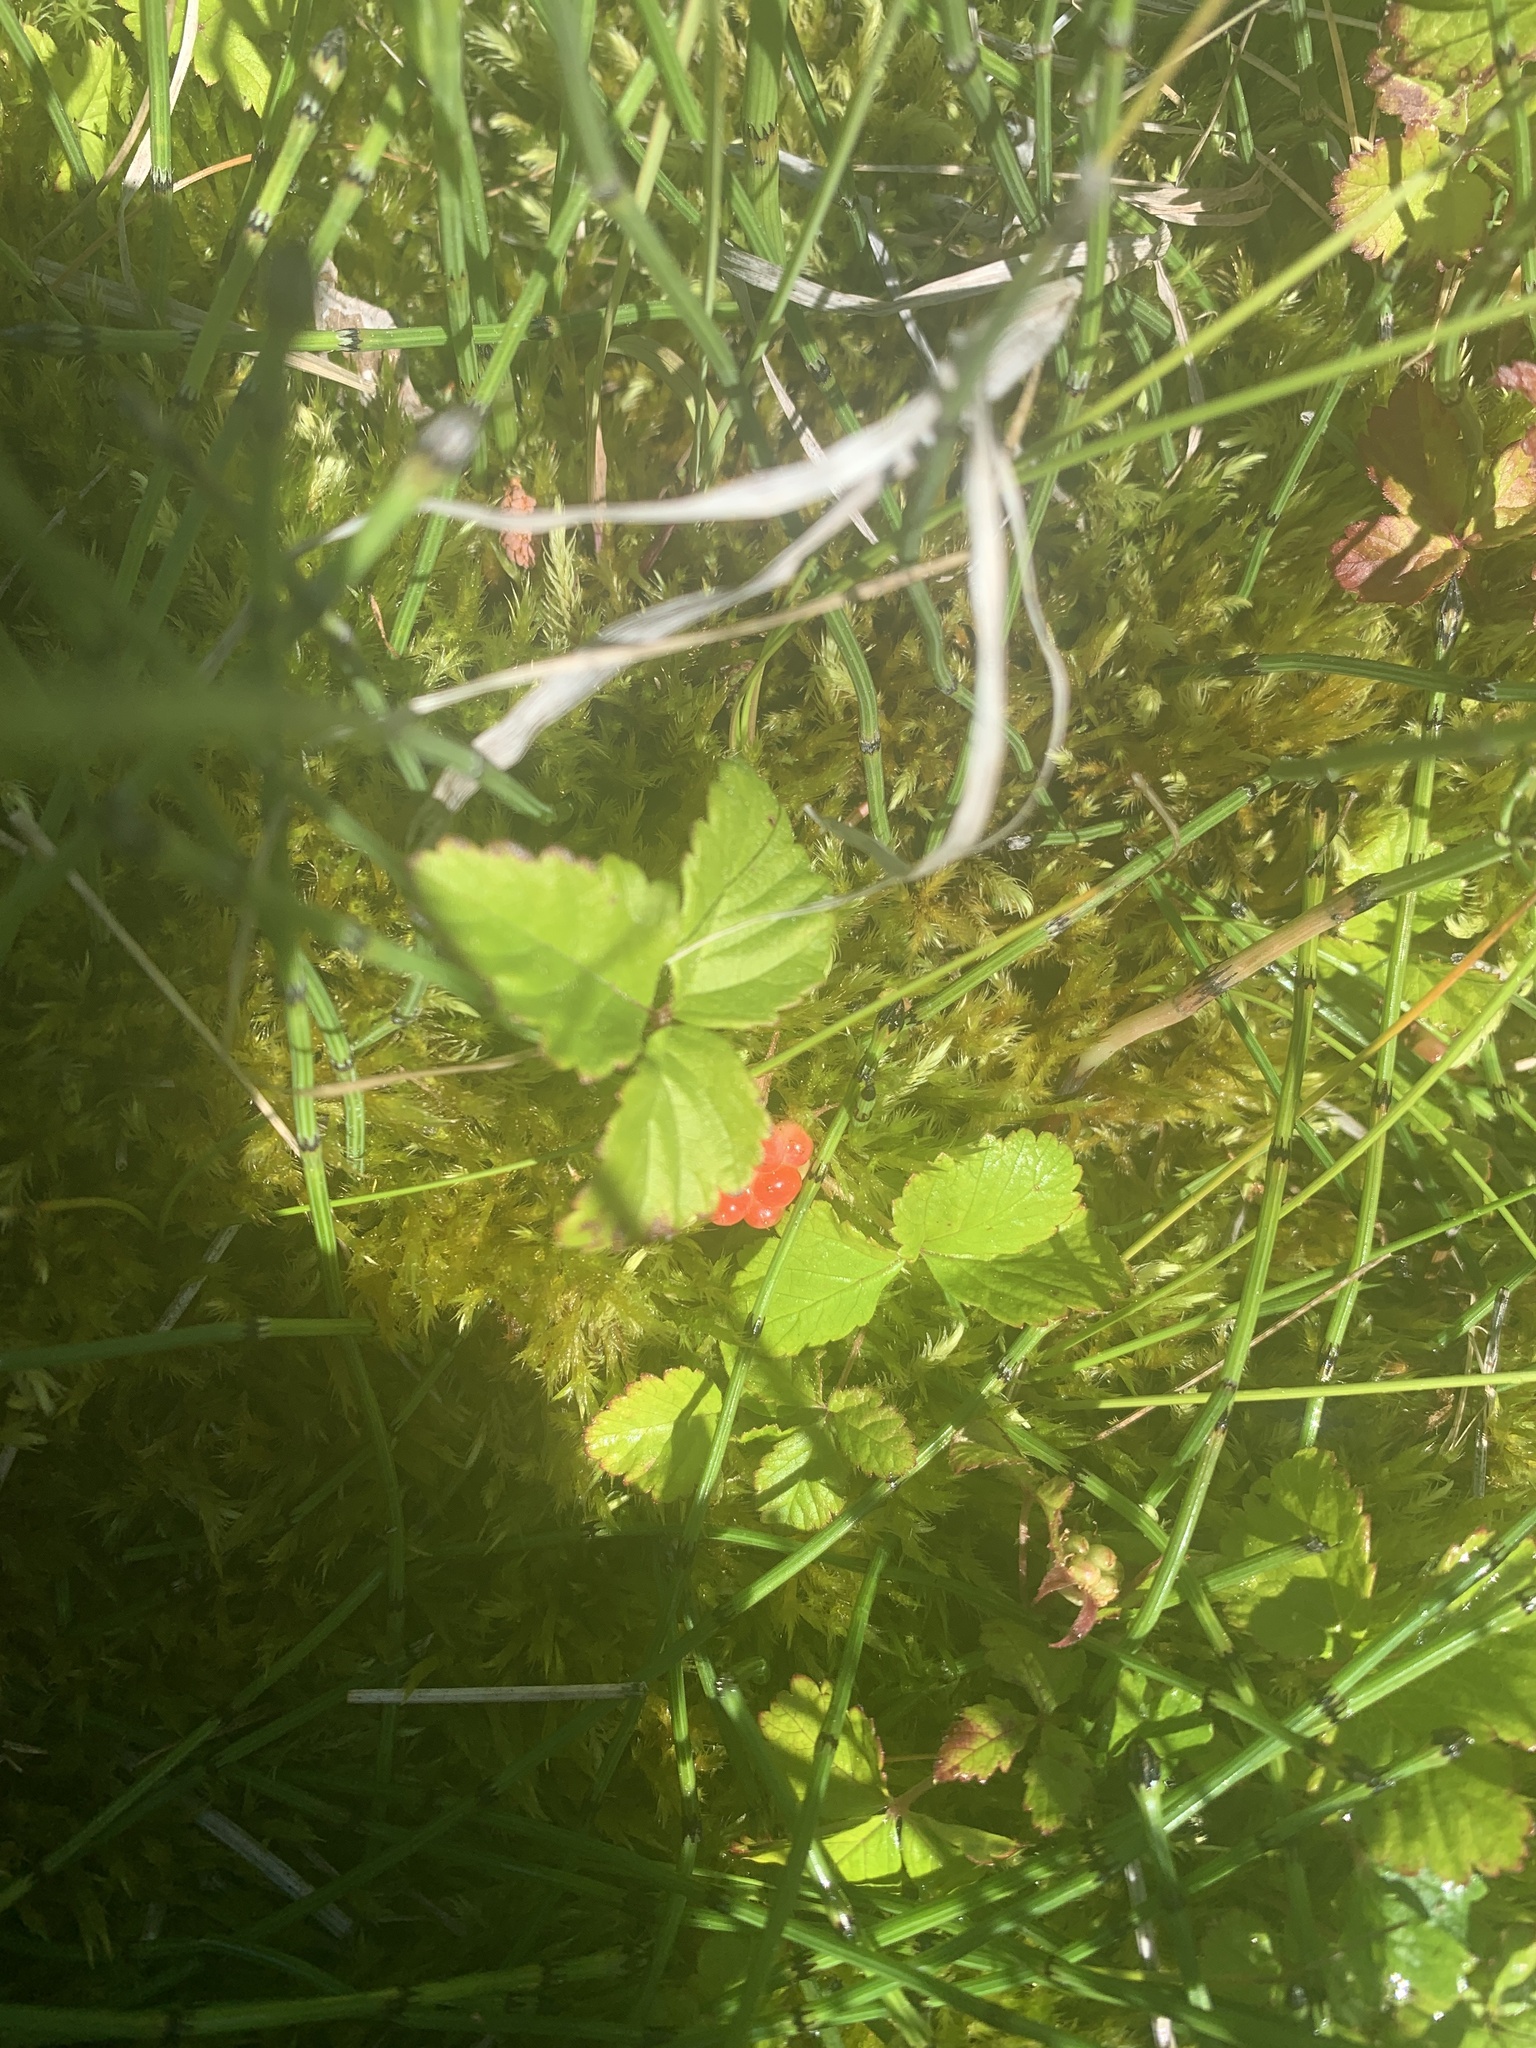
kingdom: Plantae
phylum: Tracheophyta
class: Magnoliopsida
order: Rosales
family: Rosaceae
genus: Rubus
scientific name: Rubus pubescens
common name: Dwarf raspberry
